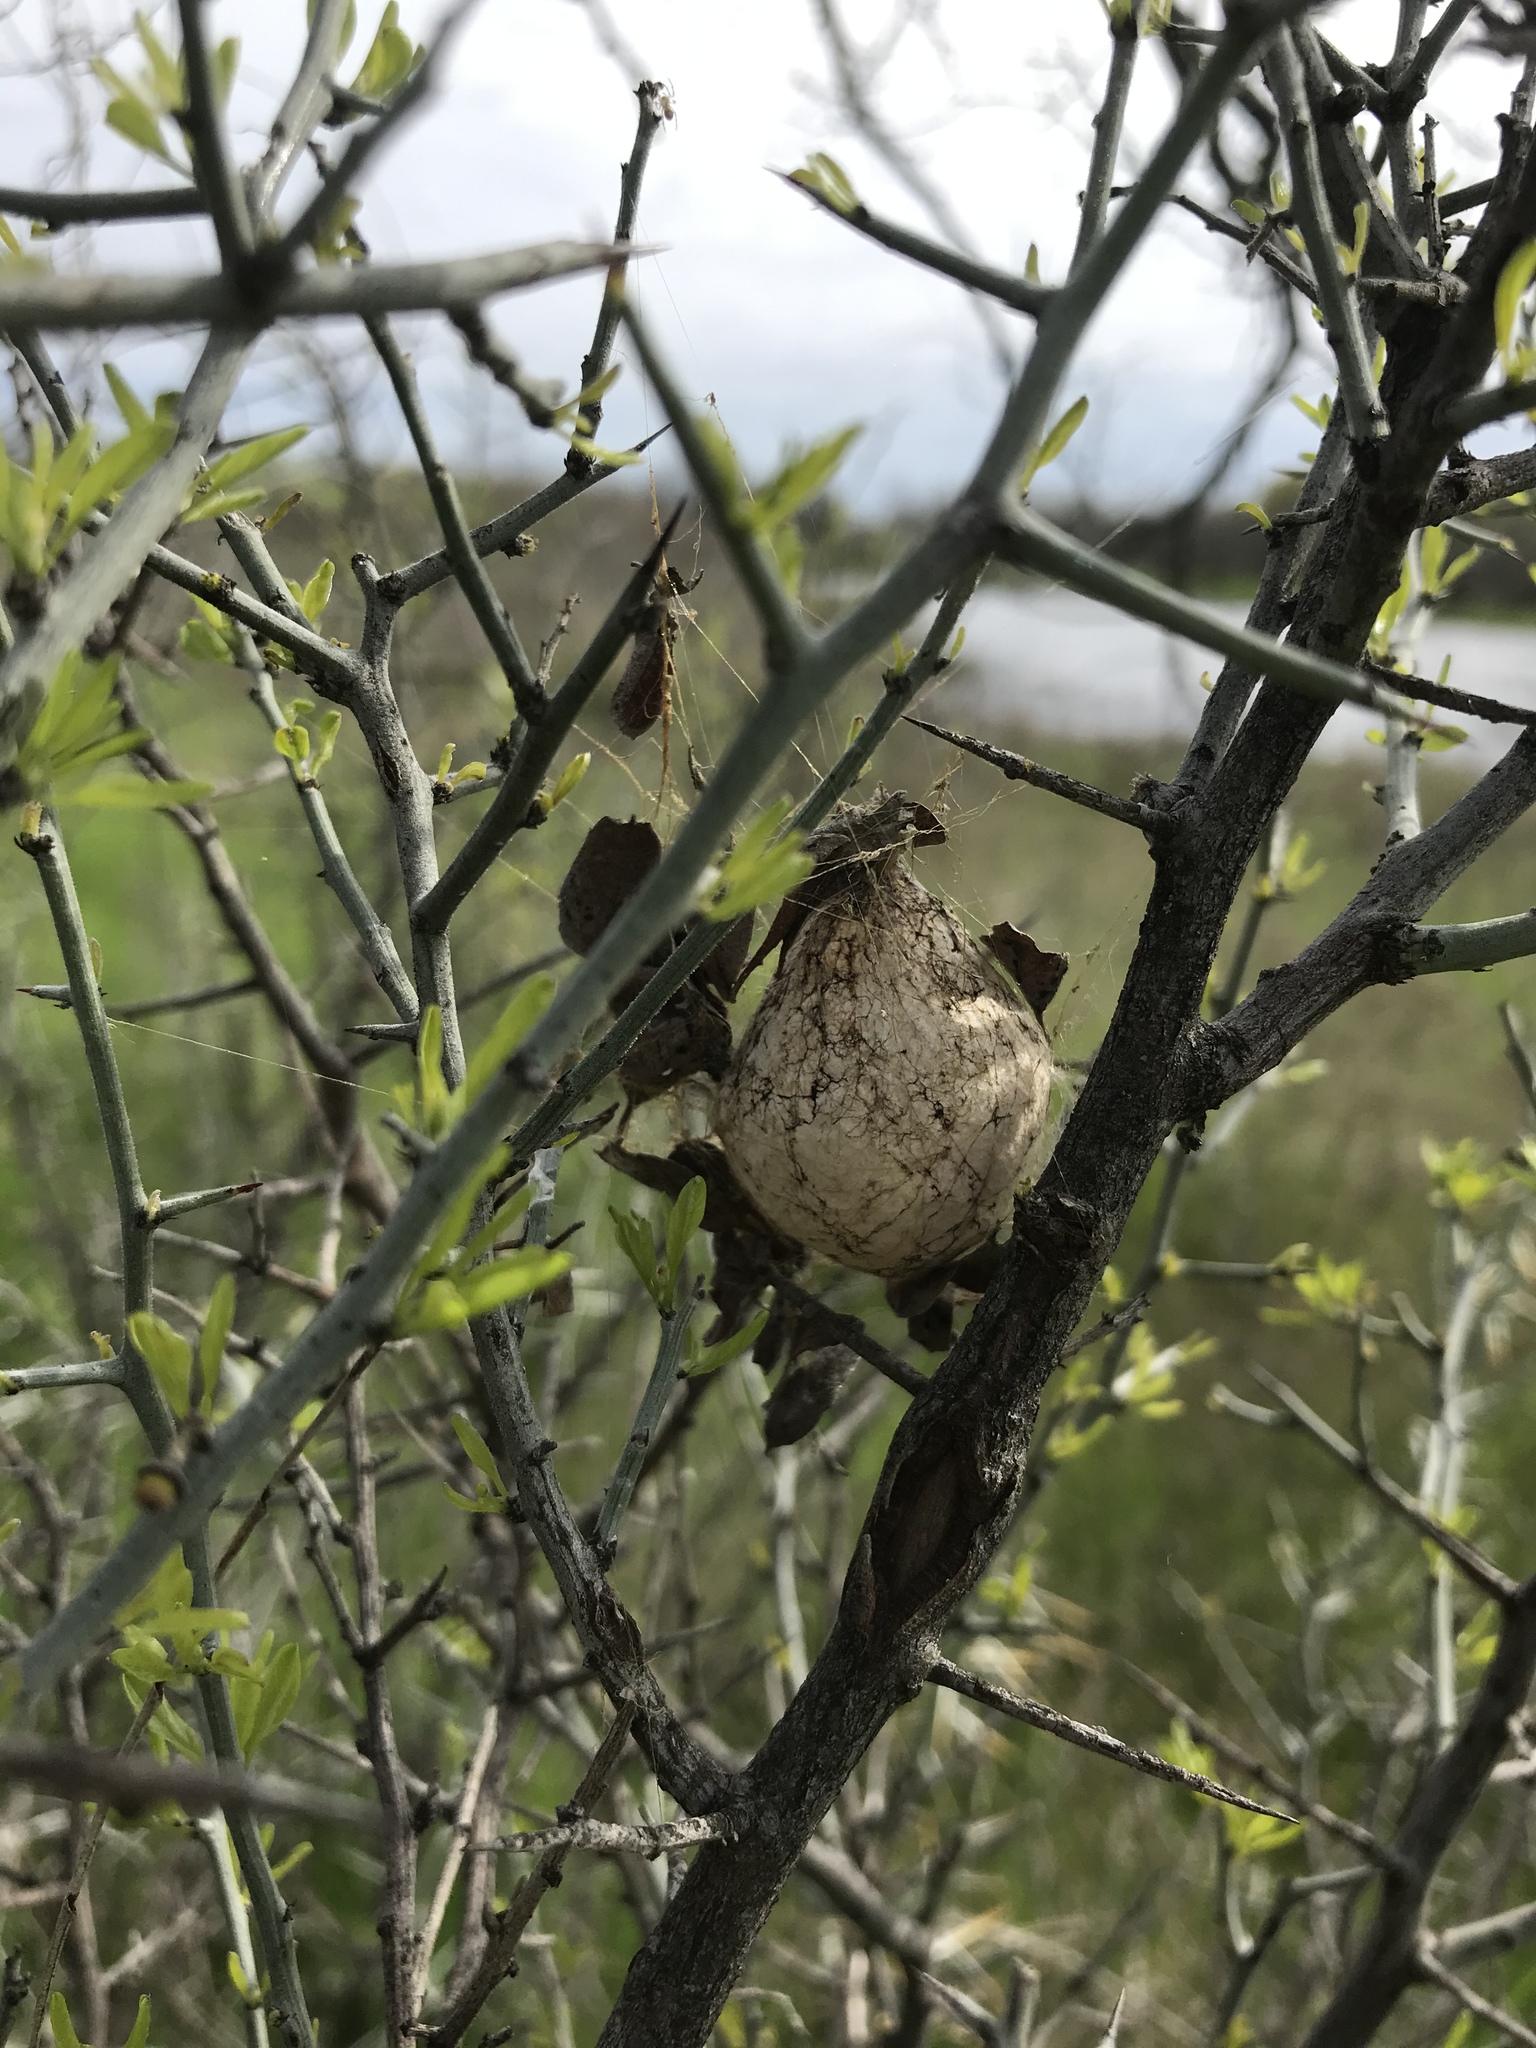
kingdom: Animalia
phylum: Arthropoda
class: Arachnida
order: Araneae
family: Araneidae
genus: Argiope
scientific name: Argiope aurantia
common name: Orb weavers
